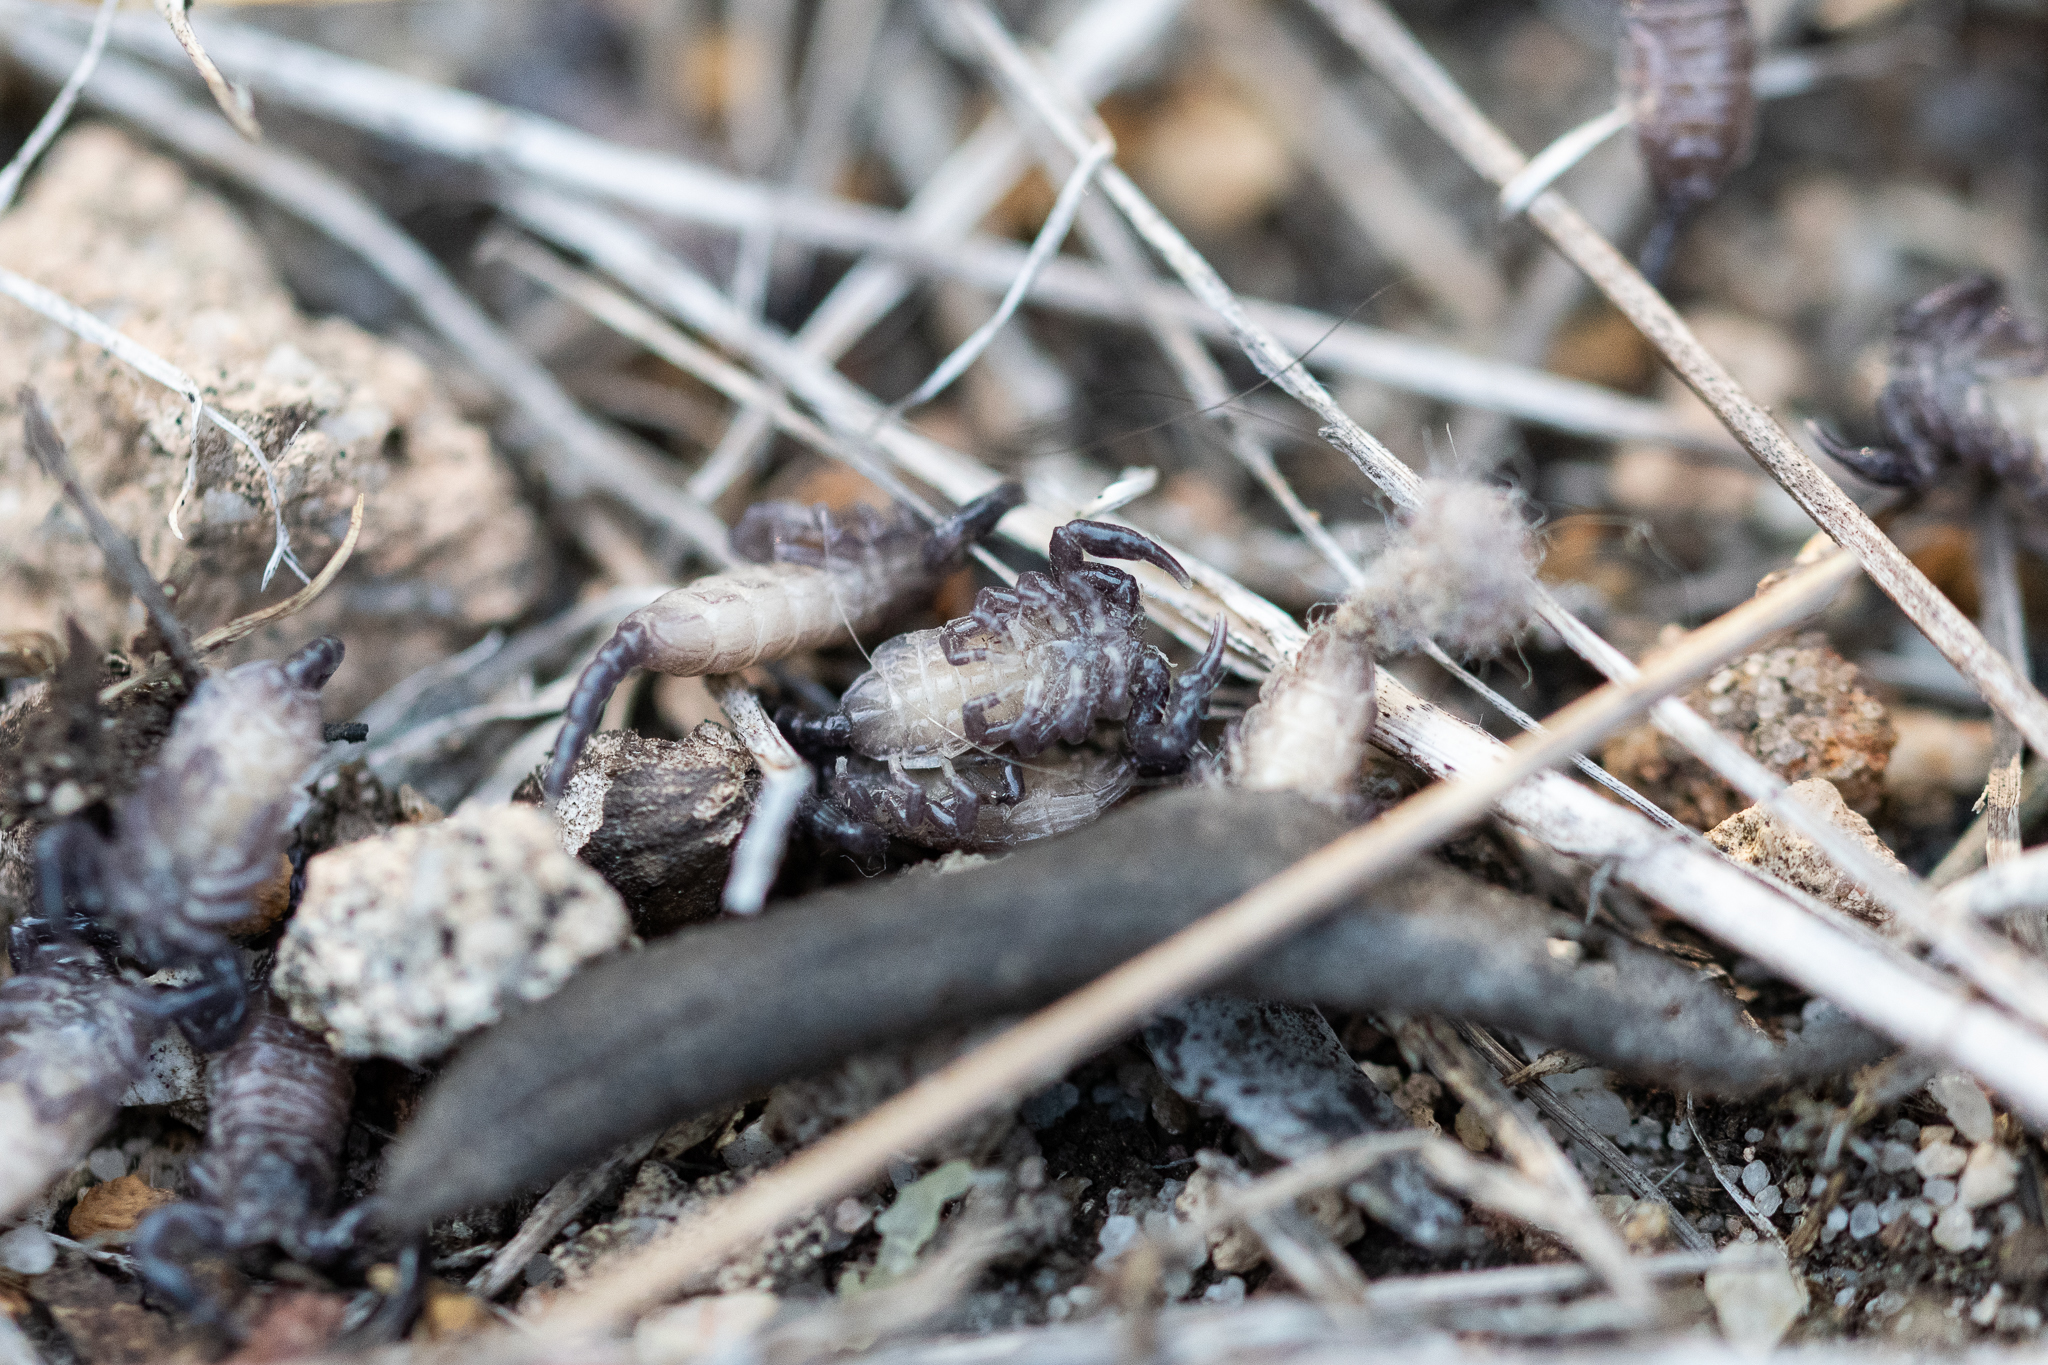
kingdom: Animalia
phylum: Arthropoda
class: Arachnida
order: Scorpiones
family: Hormuridae
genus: Opisthacanthus
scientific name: Opisthacanthus capensis
